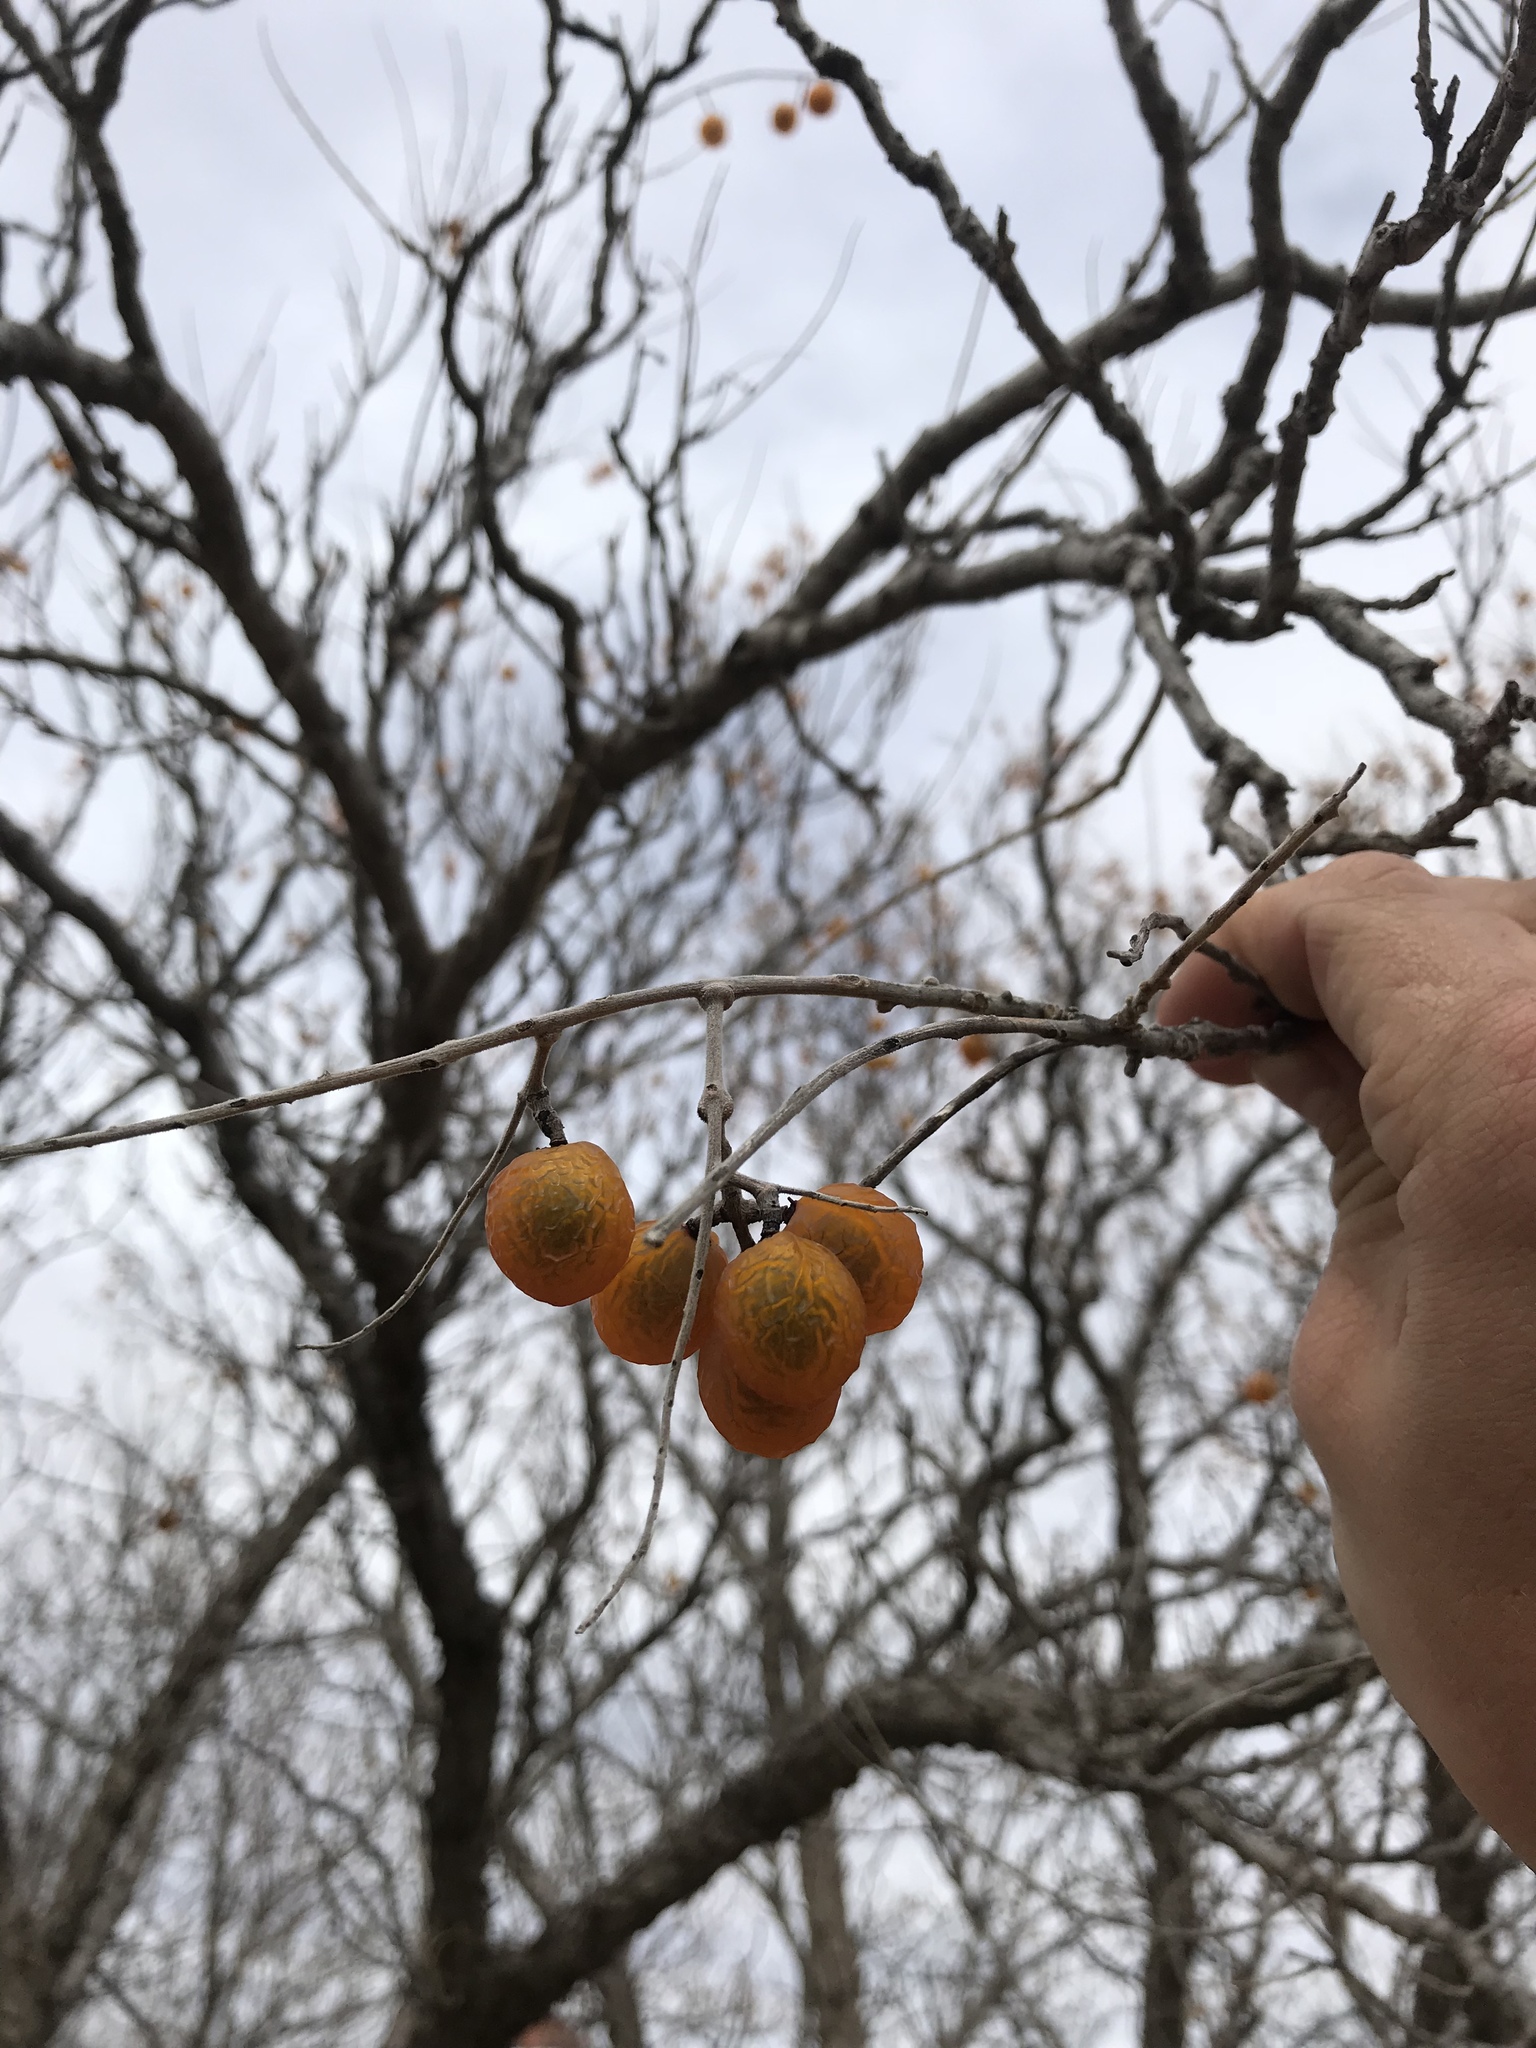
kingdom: Plantae
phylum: Tracheophyta
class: Magnoliopsida
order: Sapindales
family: Sapindaceae
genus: Sapindus
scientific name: Sapindus drummondii
